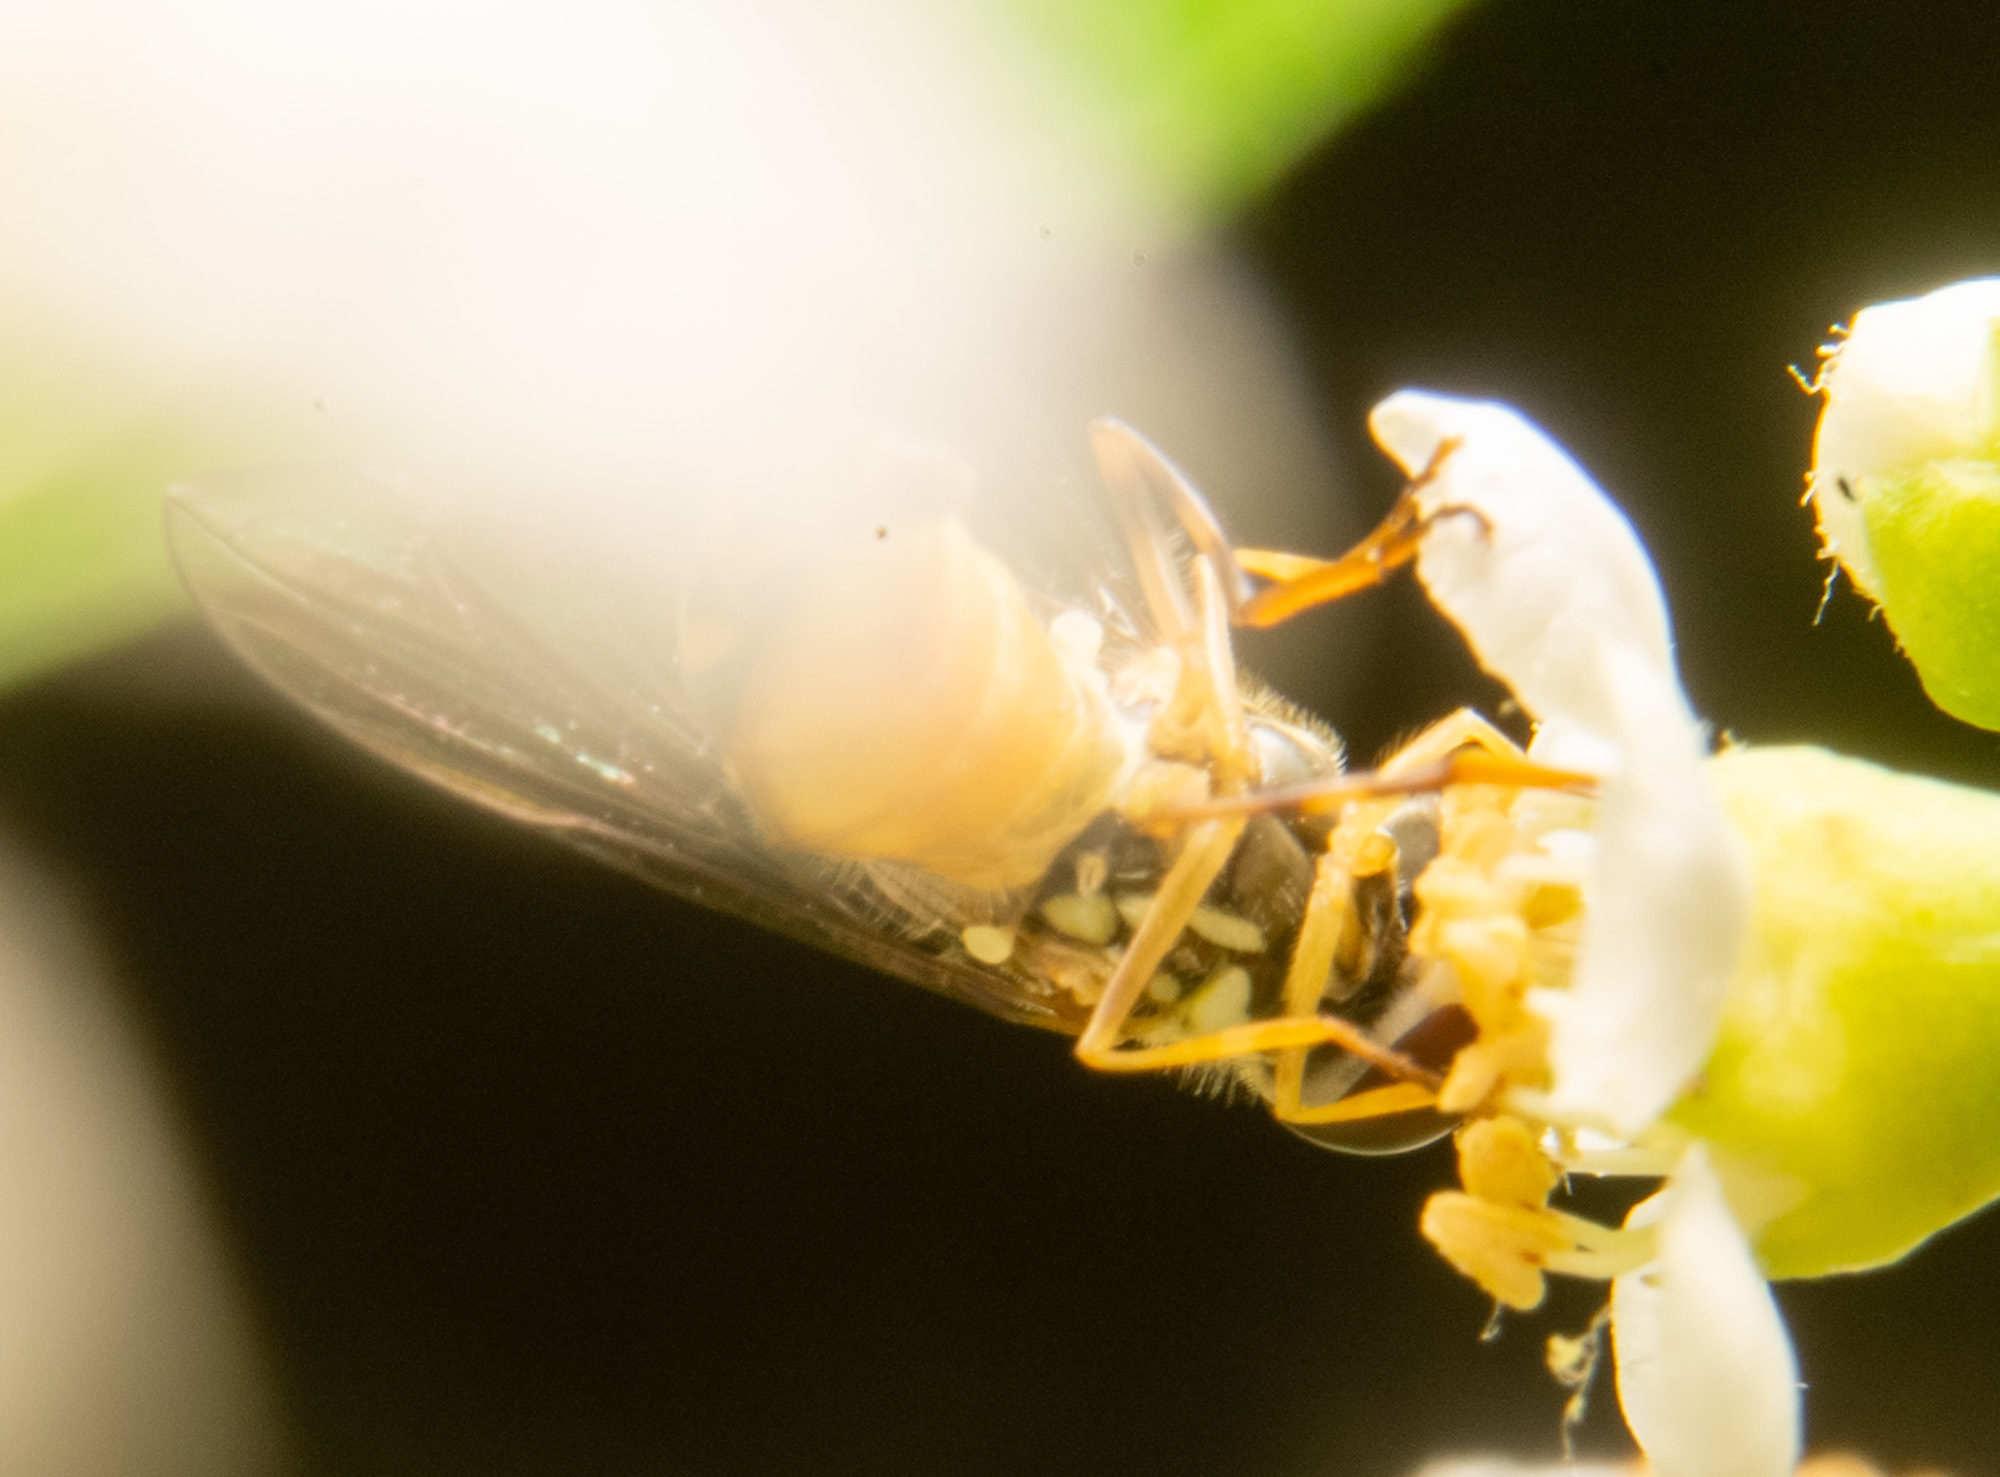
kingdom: Animalia
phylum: Arthropoda
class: Insecta
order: Diptera
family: Syrphidae
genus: Allograpta
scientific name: Allograpta obliqua
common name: Common oblique syrphid
